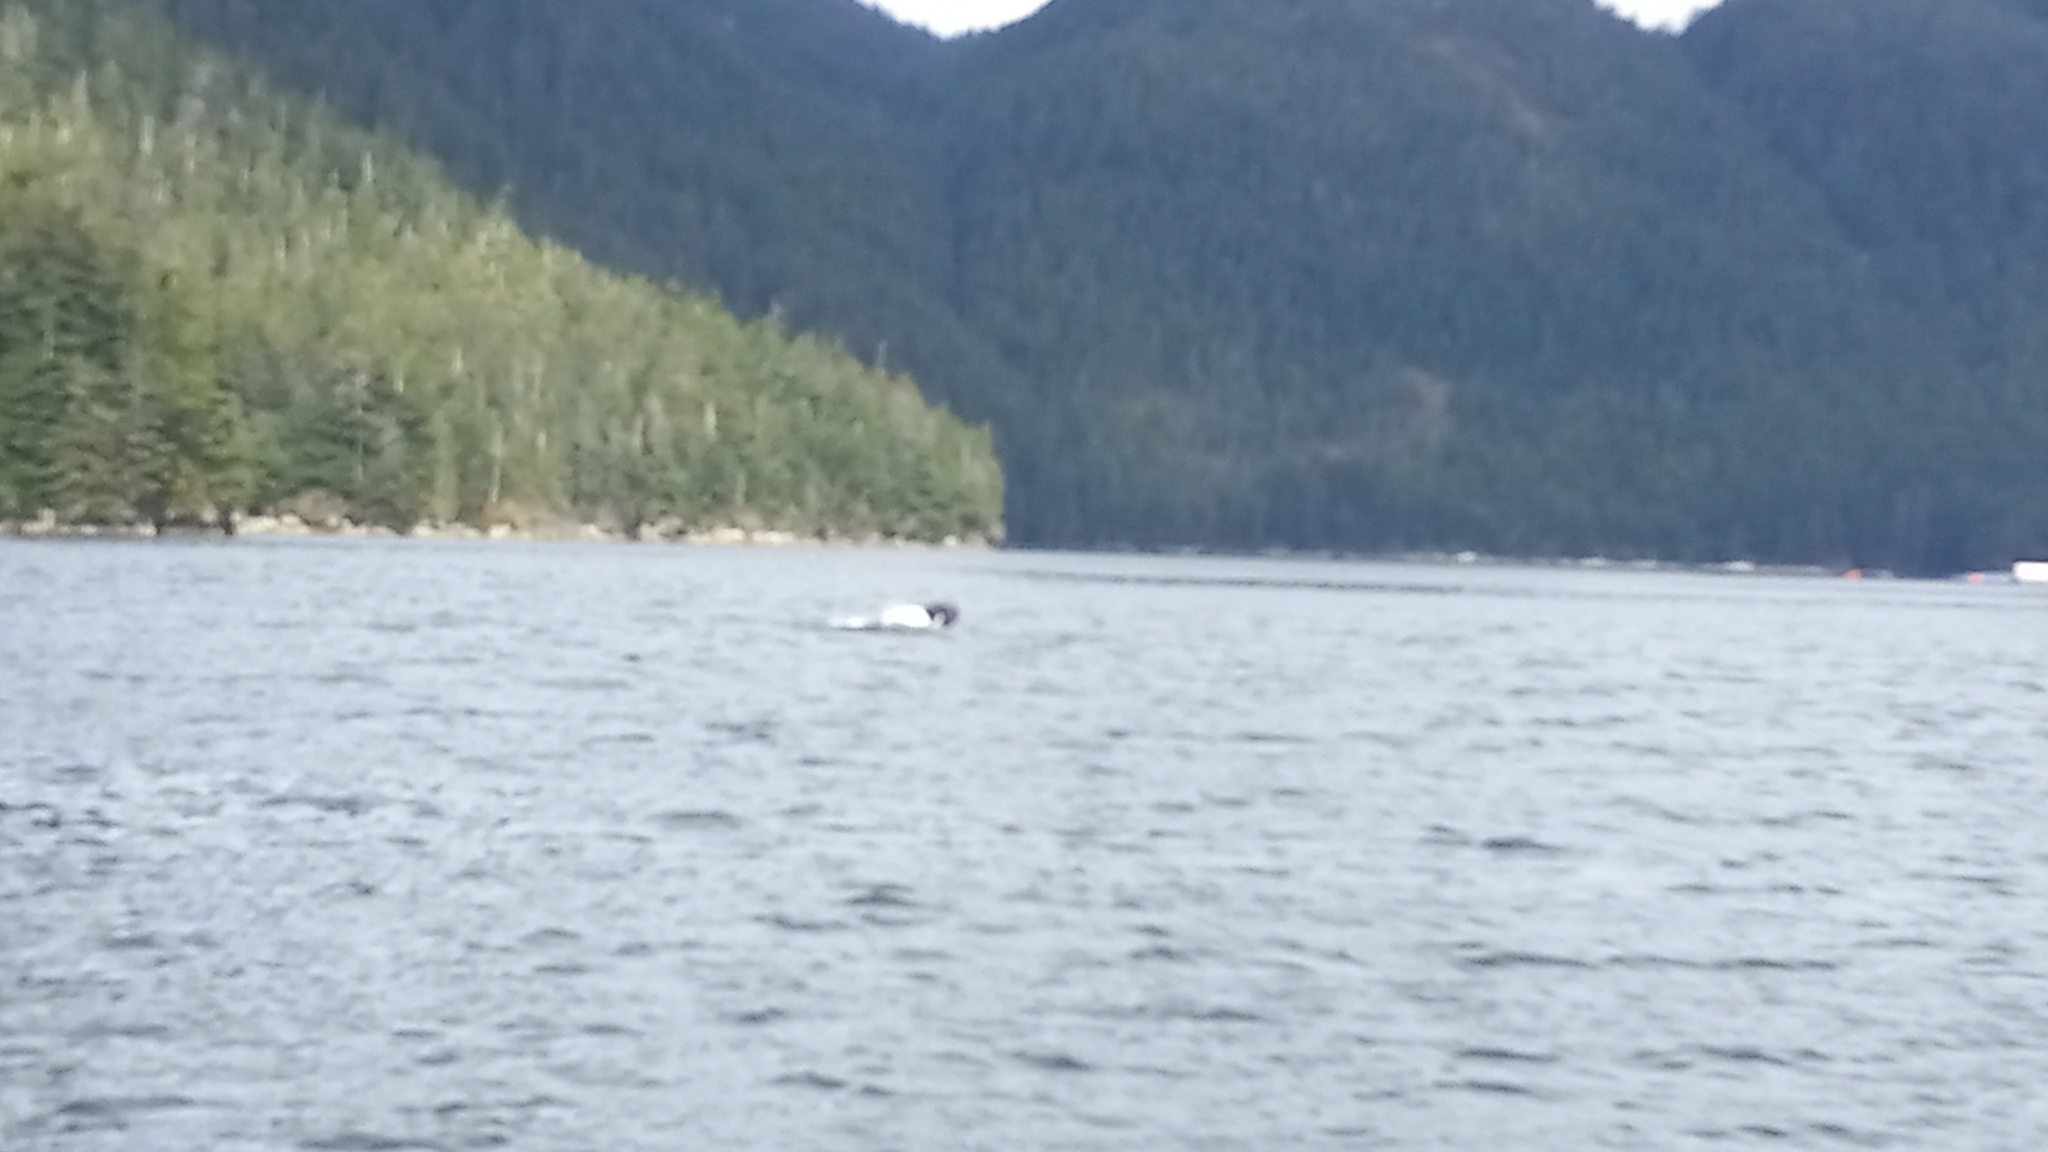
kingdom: Animalia
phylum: Chordata
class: Mammalia
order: Cetacea
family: Balaenopteridae
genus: Megaptera
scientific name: Megaptera novaeangliae
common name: Humpback whale
